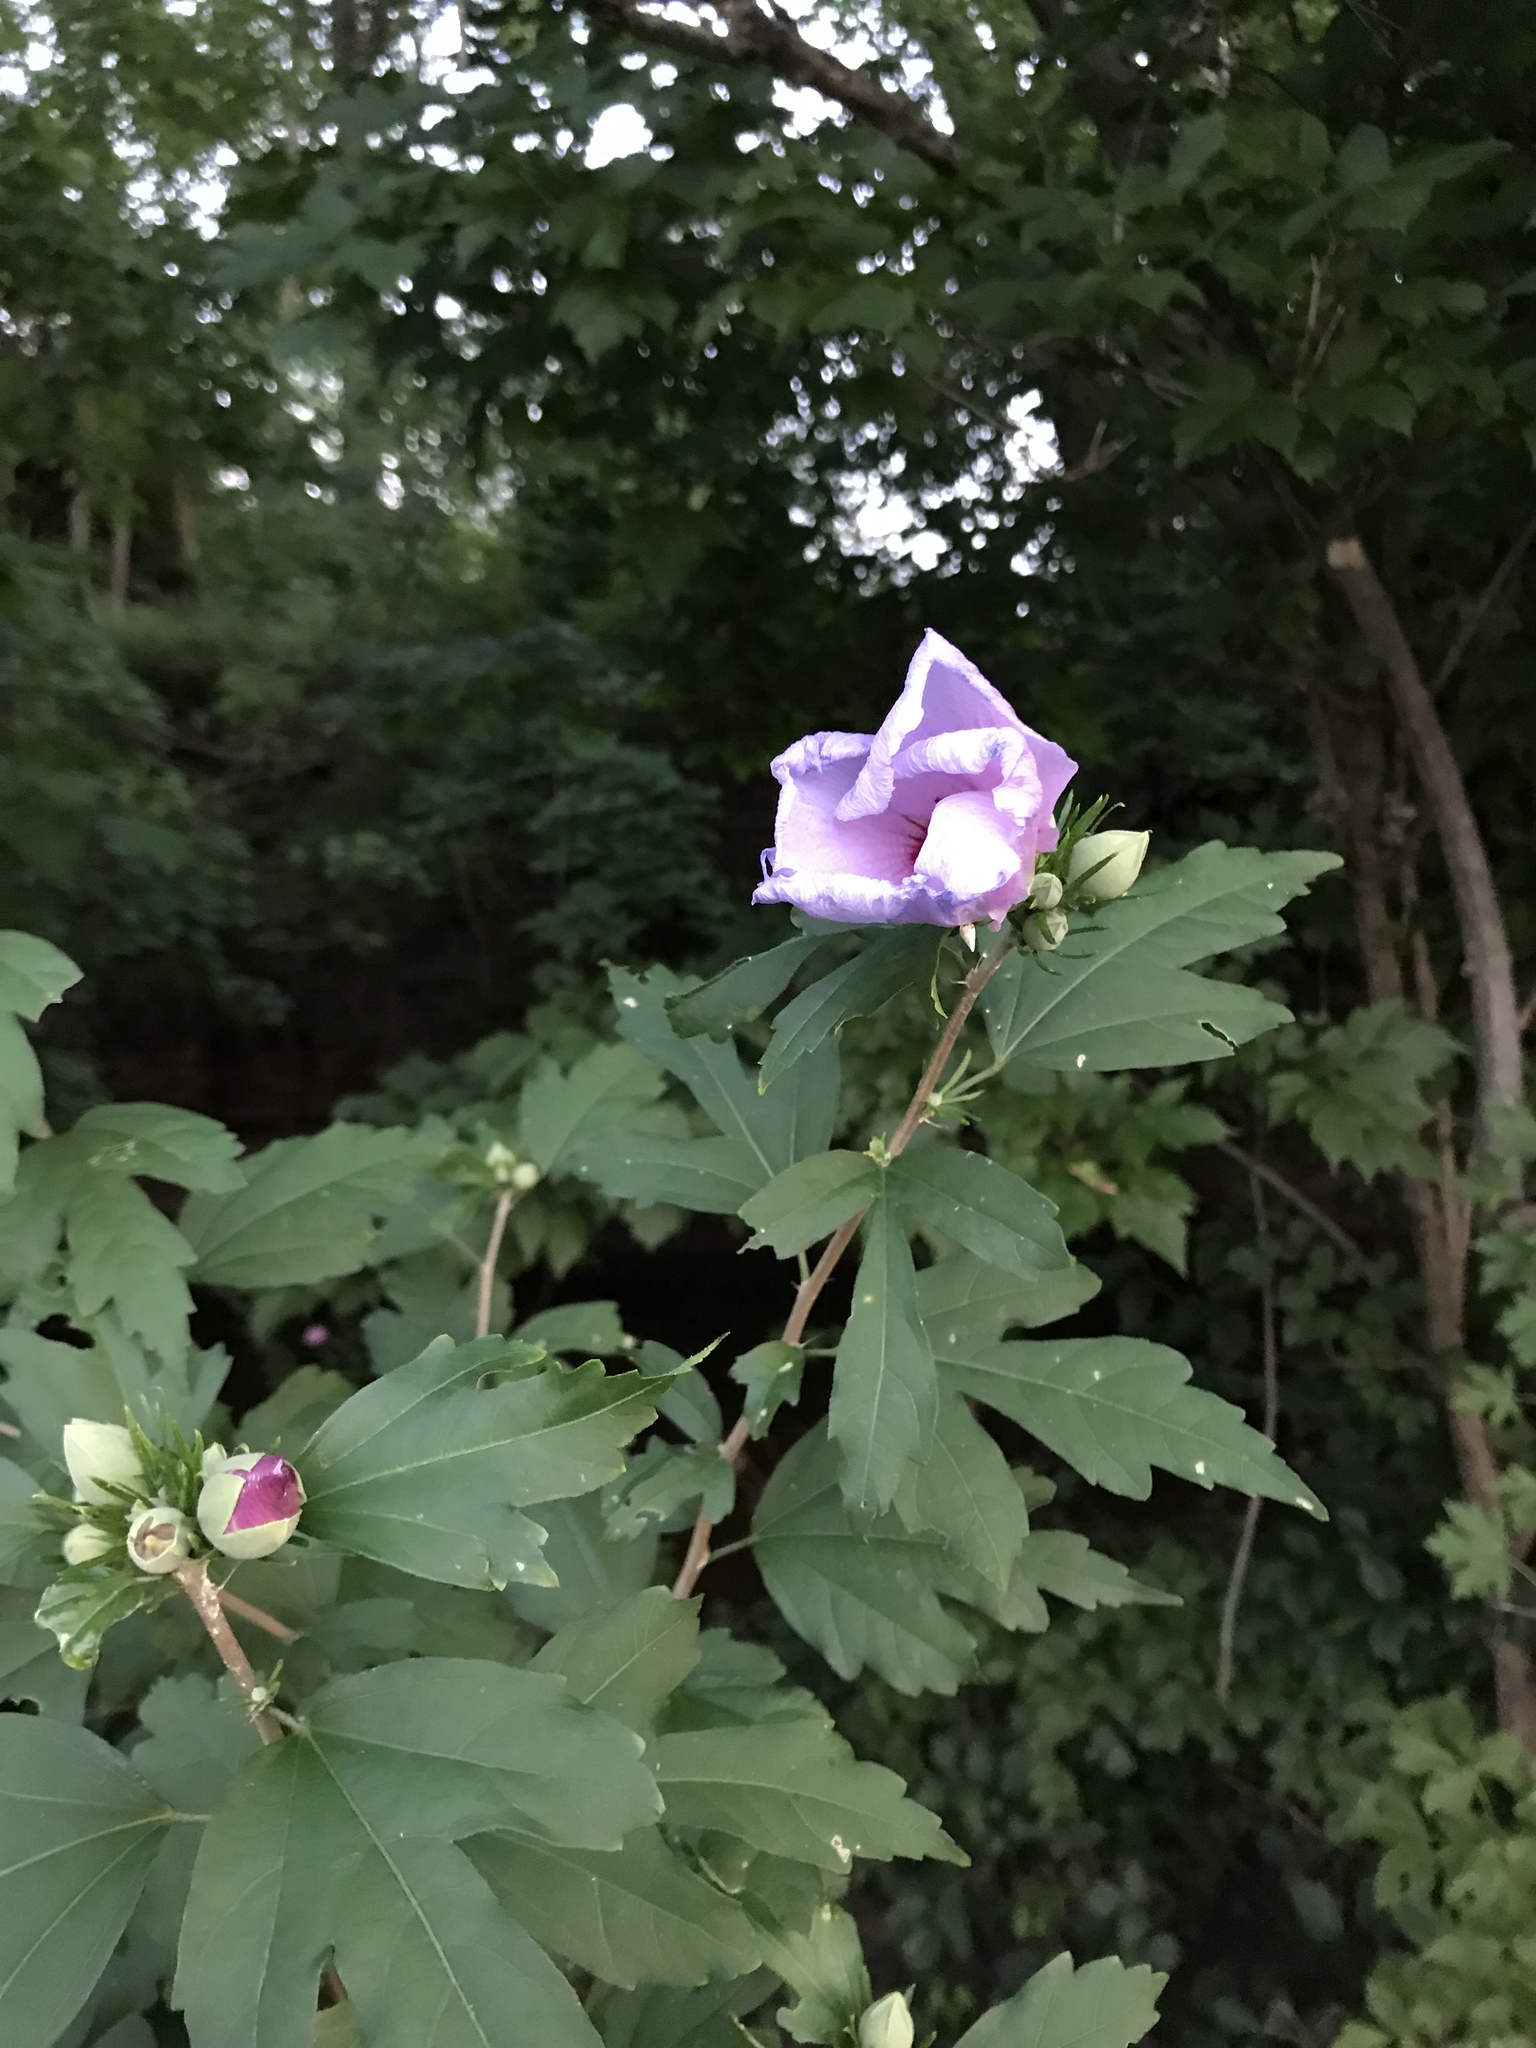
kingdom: Plantae
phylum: Tracheophyta
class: Magnoliopsida
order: Malvales
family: Malvaceae
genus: Hibiscus
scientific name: Hibiscus syriacus
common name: Syrian ketmia
